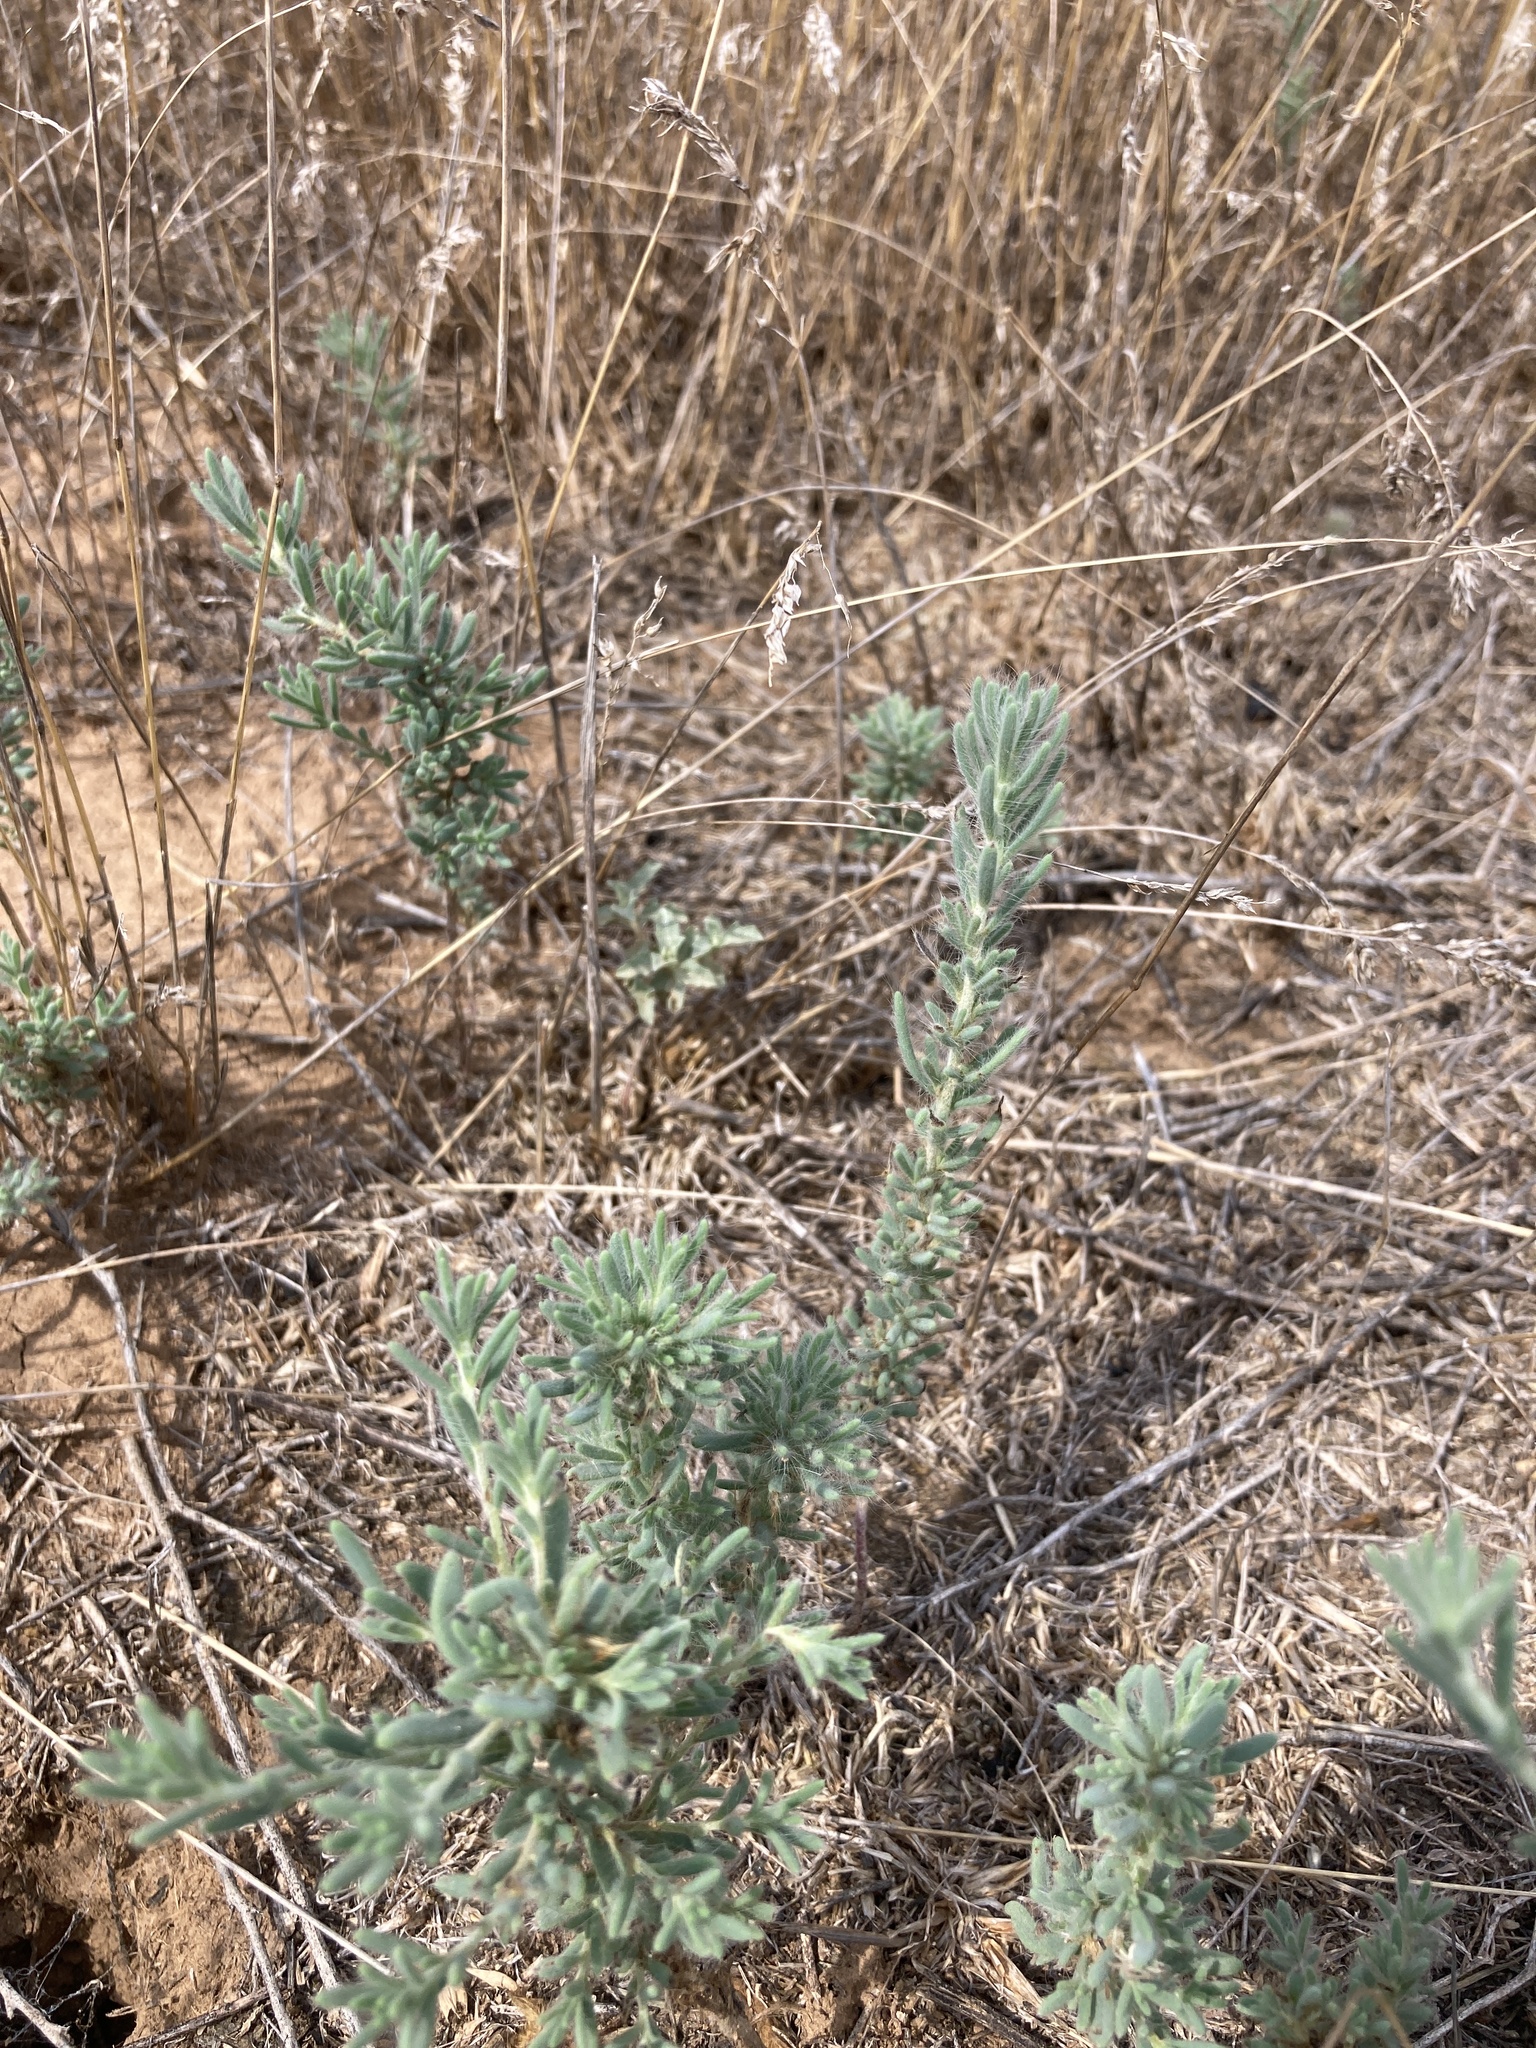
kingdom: Plantae
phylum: Tracheophyta
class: Magnoliopsida
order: Caryophyllales
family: Amaranthaceae
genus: Sedobassia
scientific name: Sedobassia sedoides
